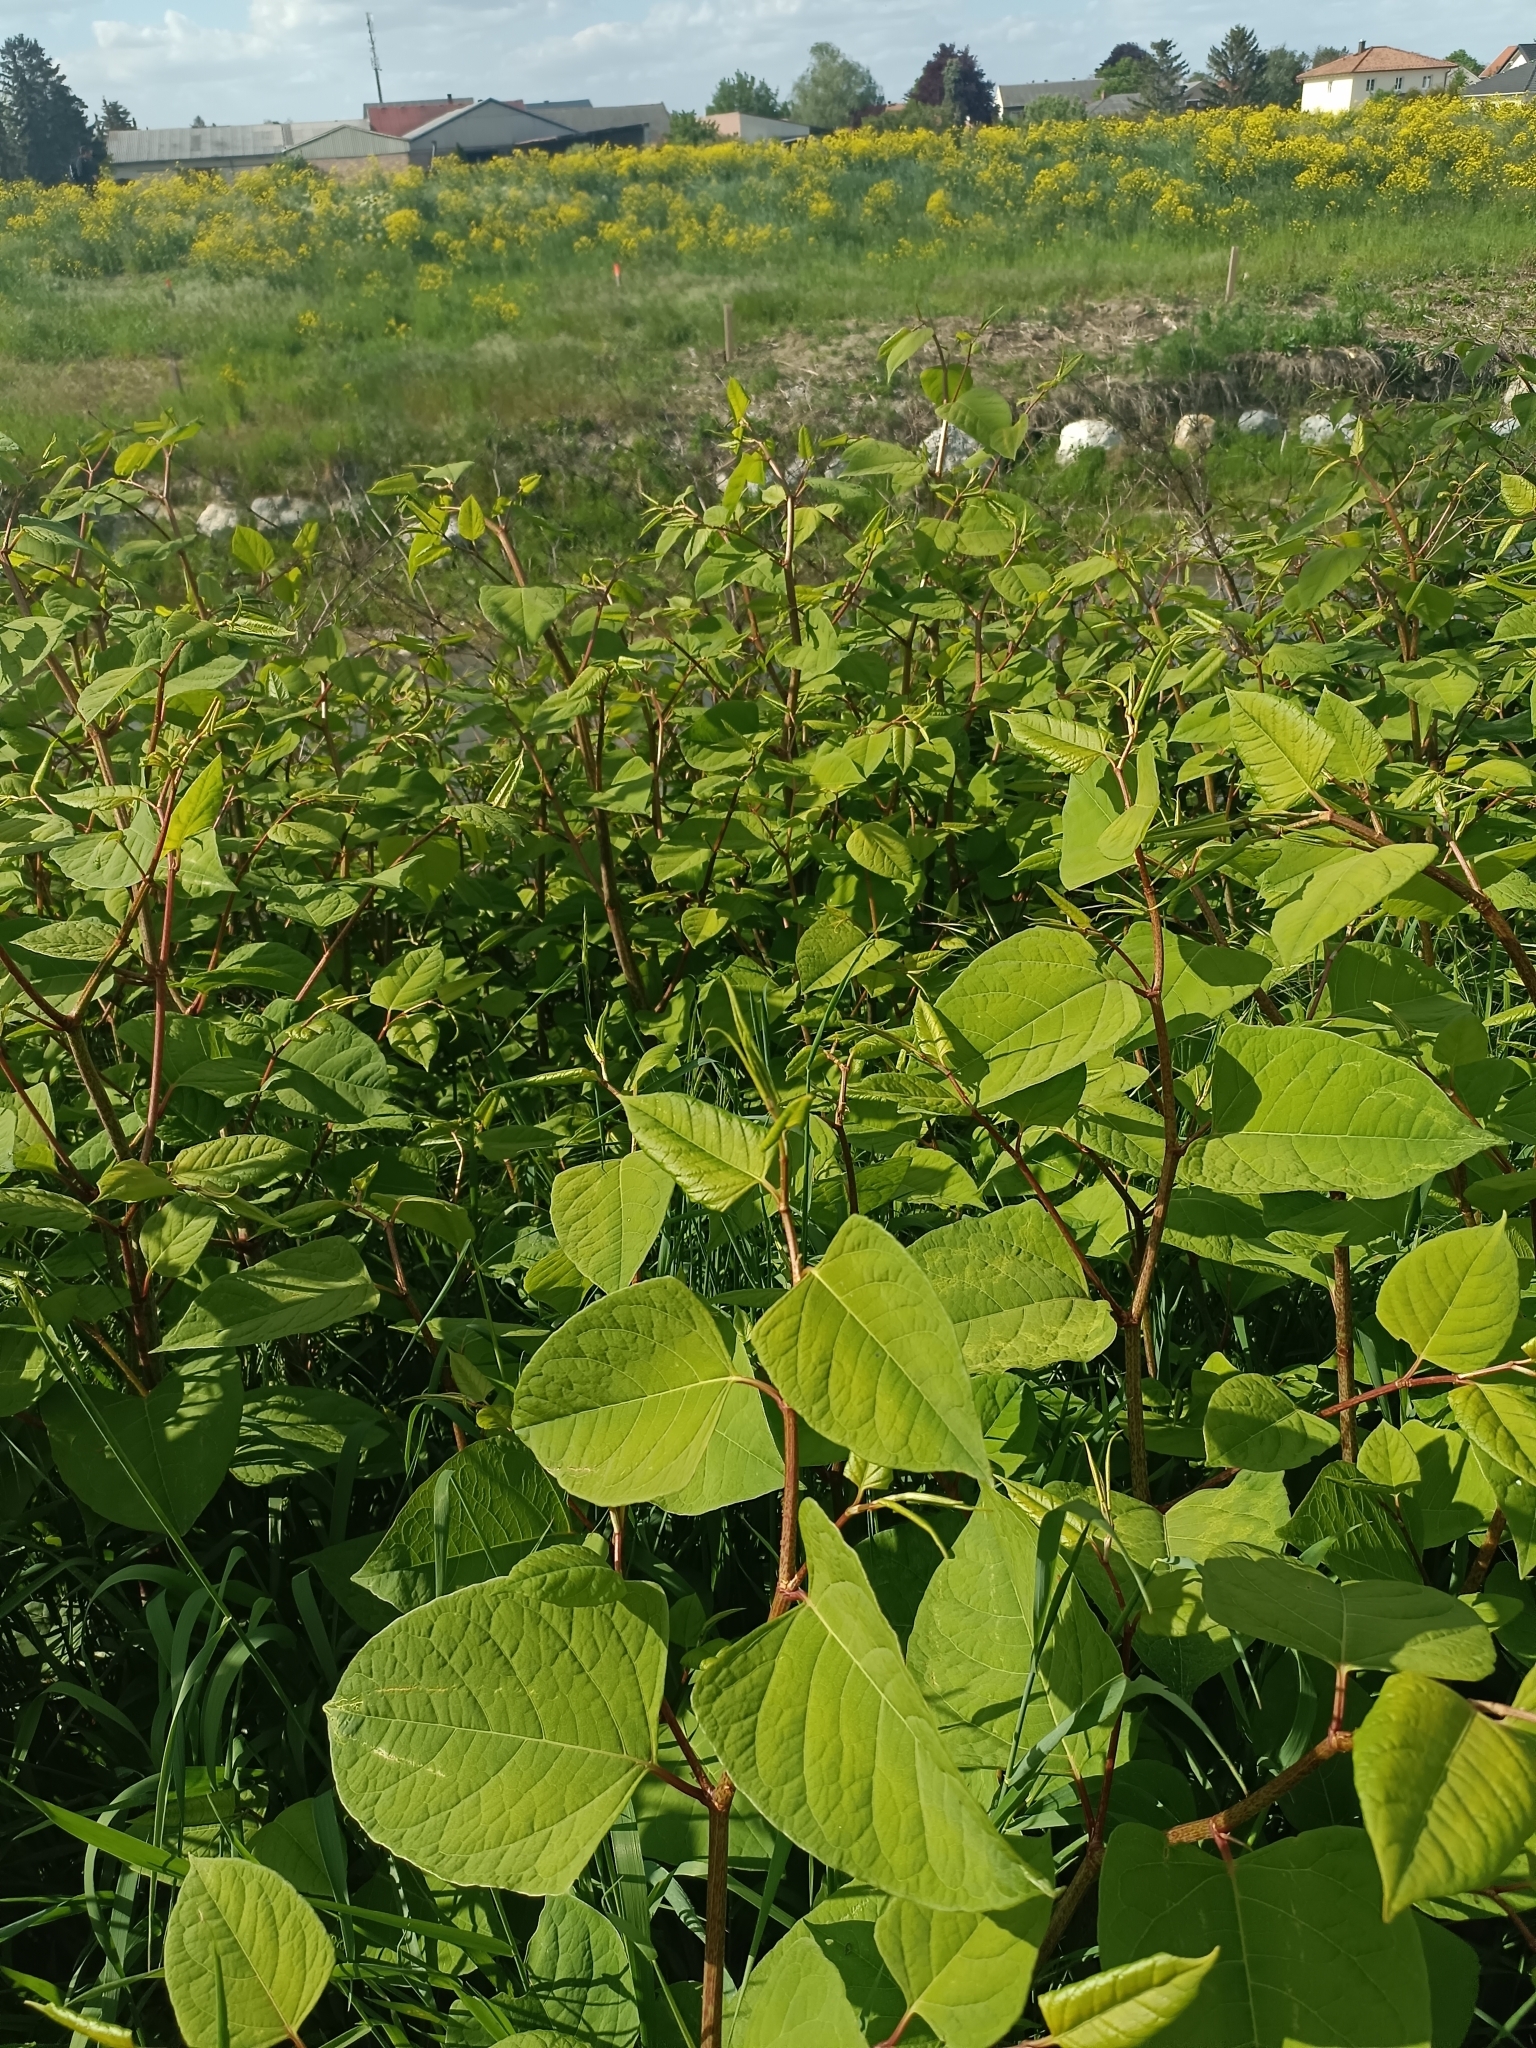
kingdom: Plantae
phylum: Tracheophyta
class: Magnoliopsida
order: Caryophyllales
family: Polygonaceae
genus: Reynoutria
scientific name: Reynoutria japonica
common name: Japanese knotweed
